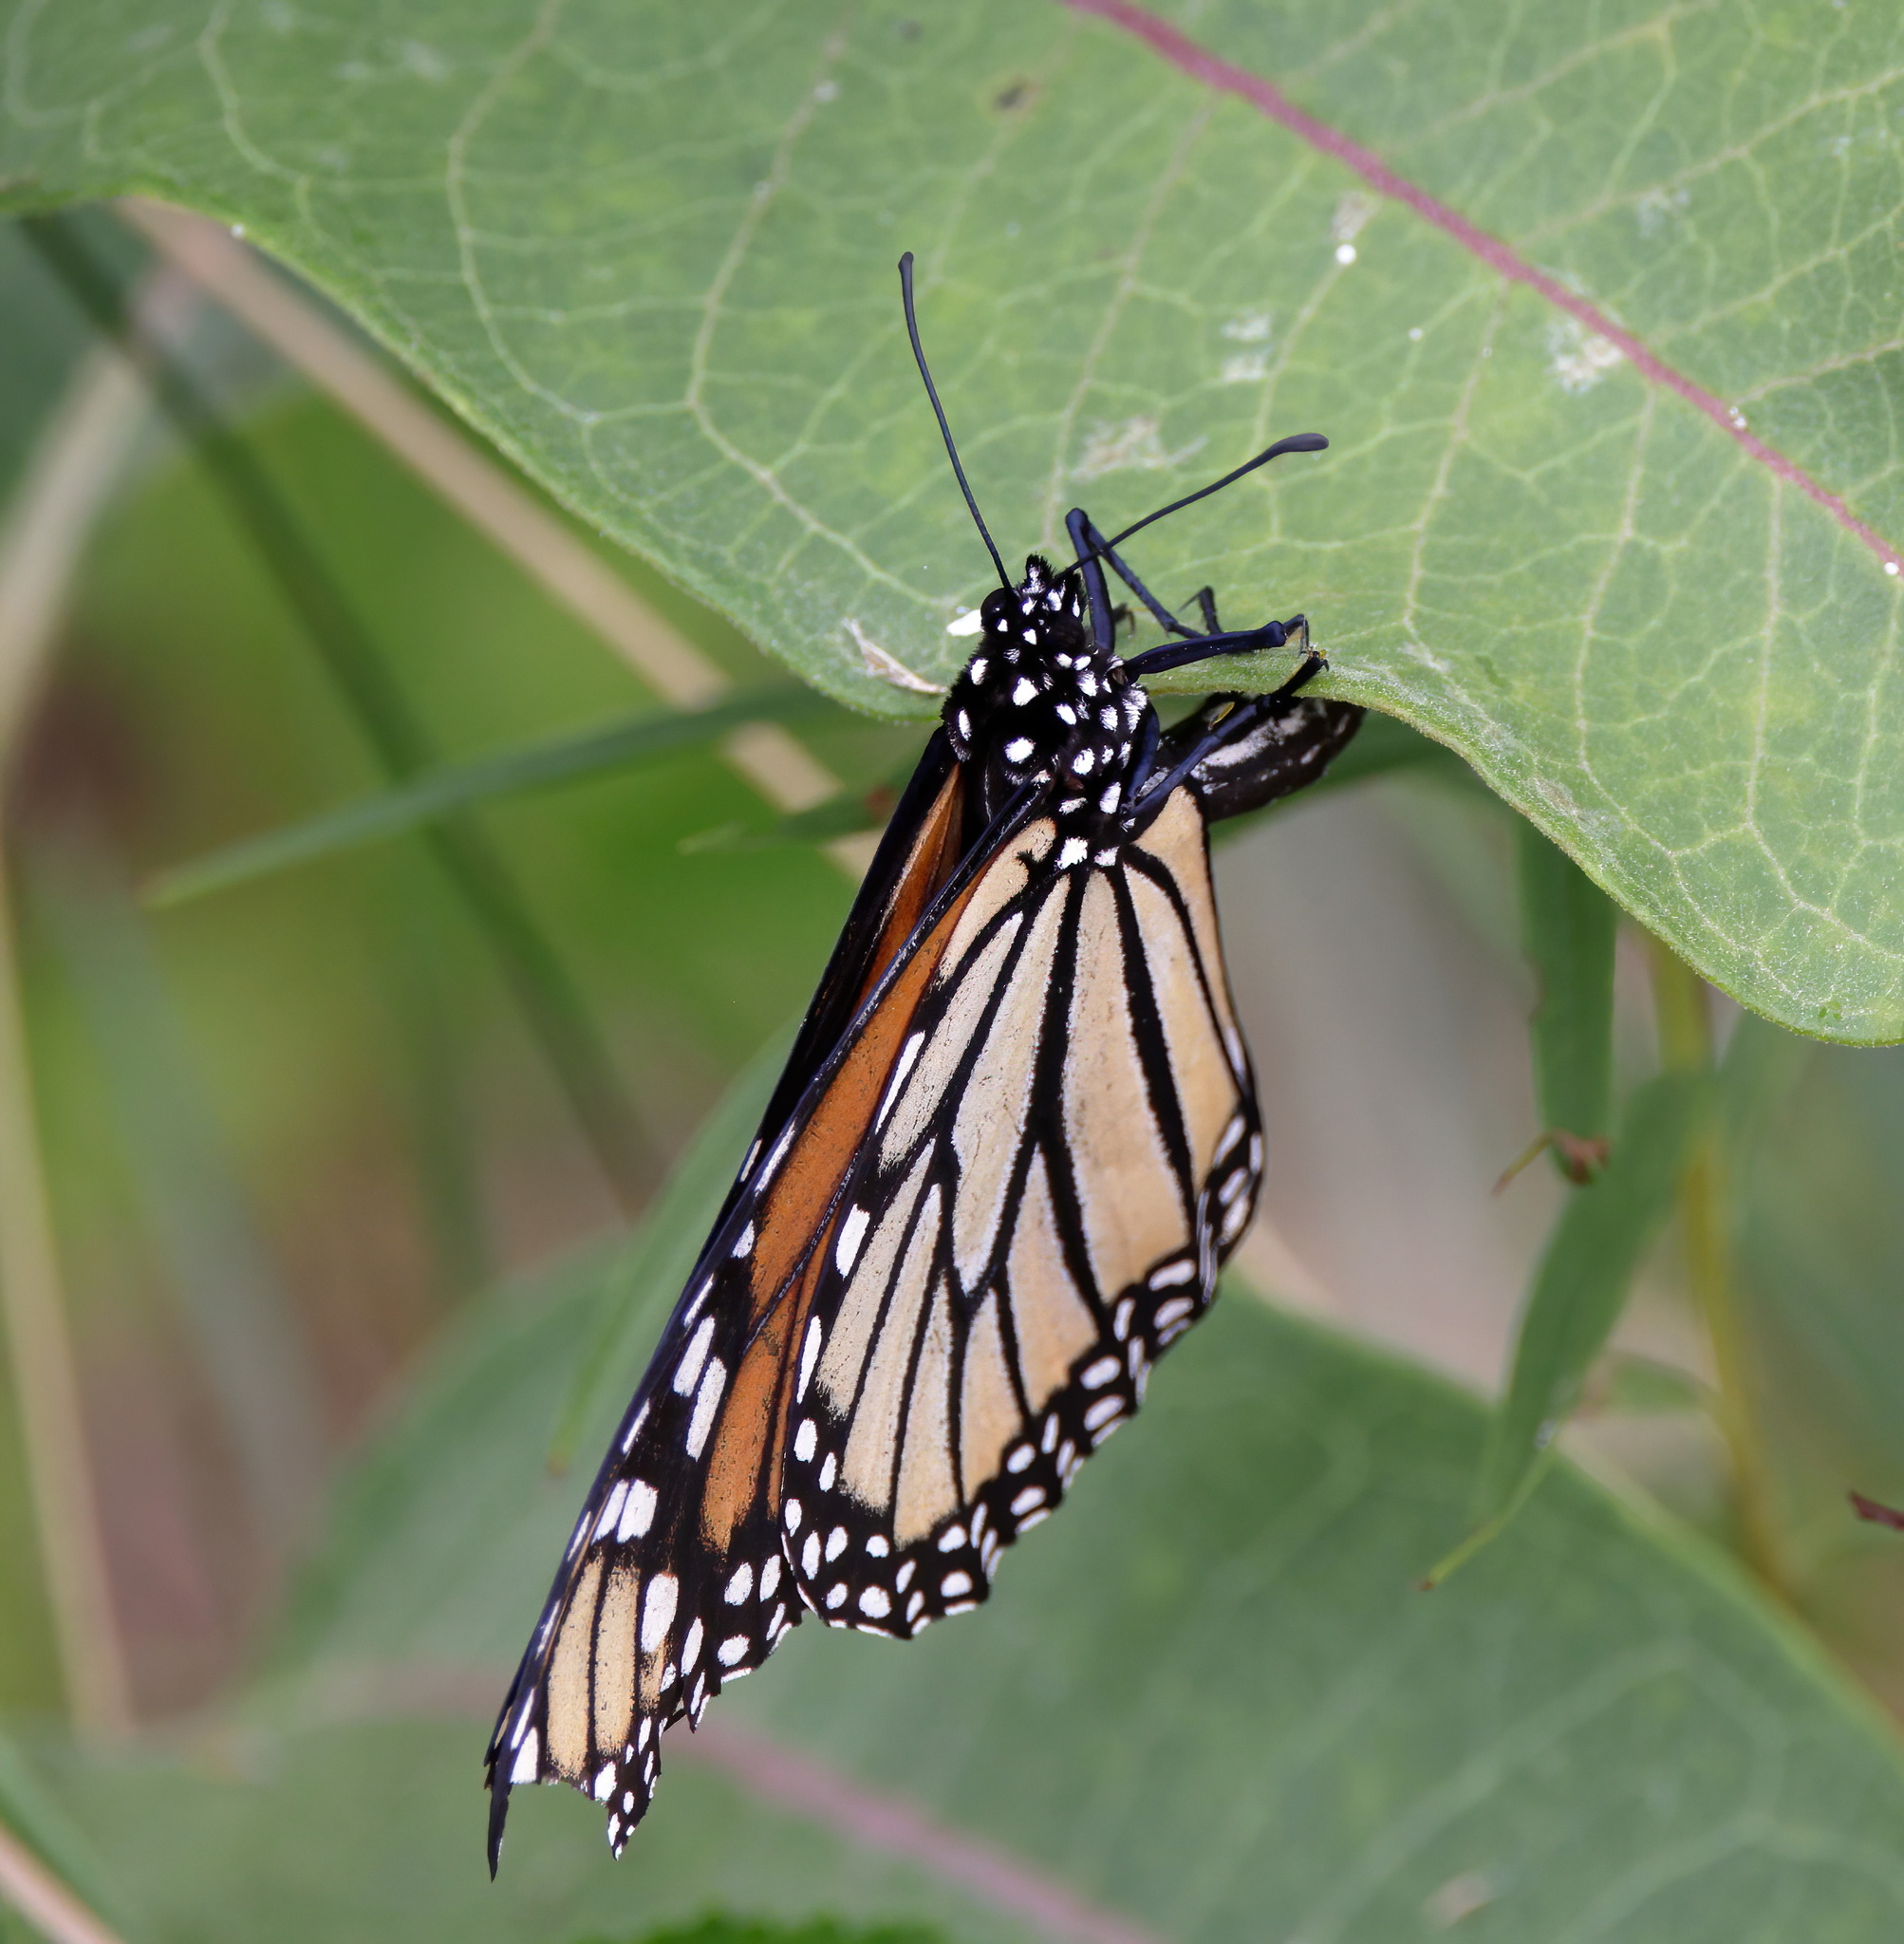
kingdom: Animalia
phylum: Arthropoda
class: Insecta
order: Lepidoptera
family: Nymphalidae
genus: Danaus
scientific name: Danaus plexippus
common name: Monarch
